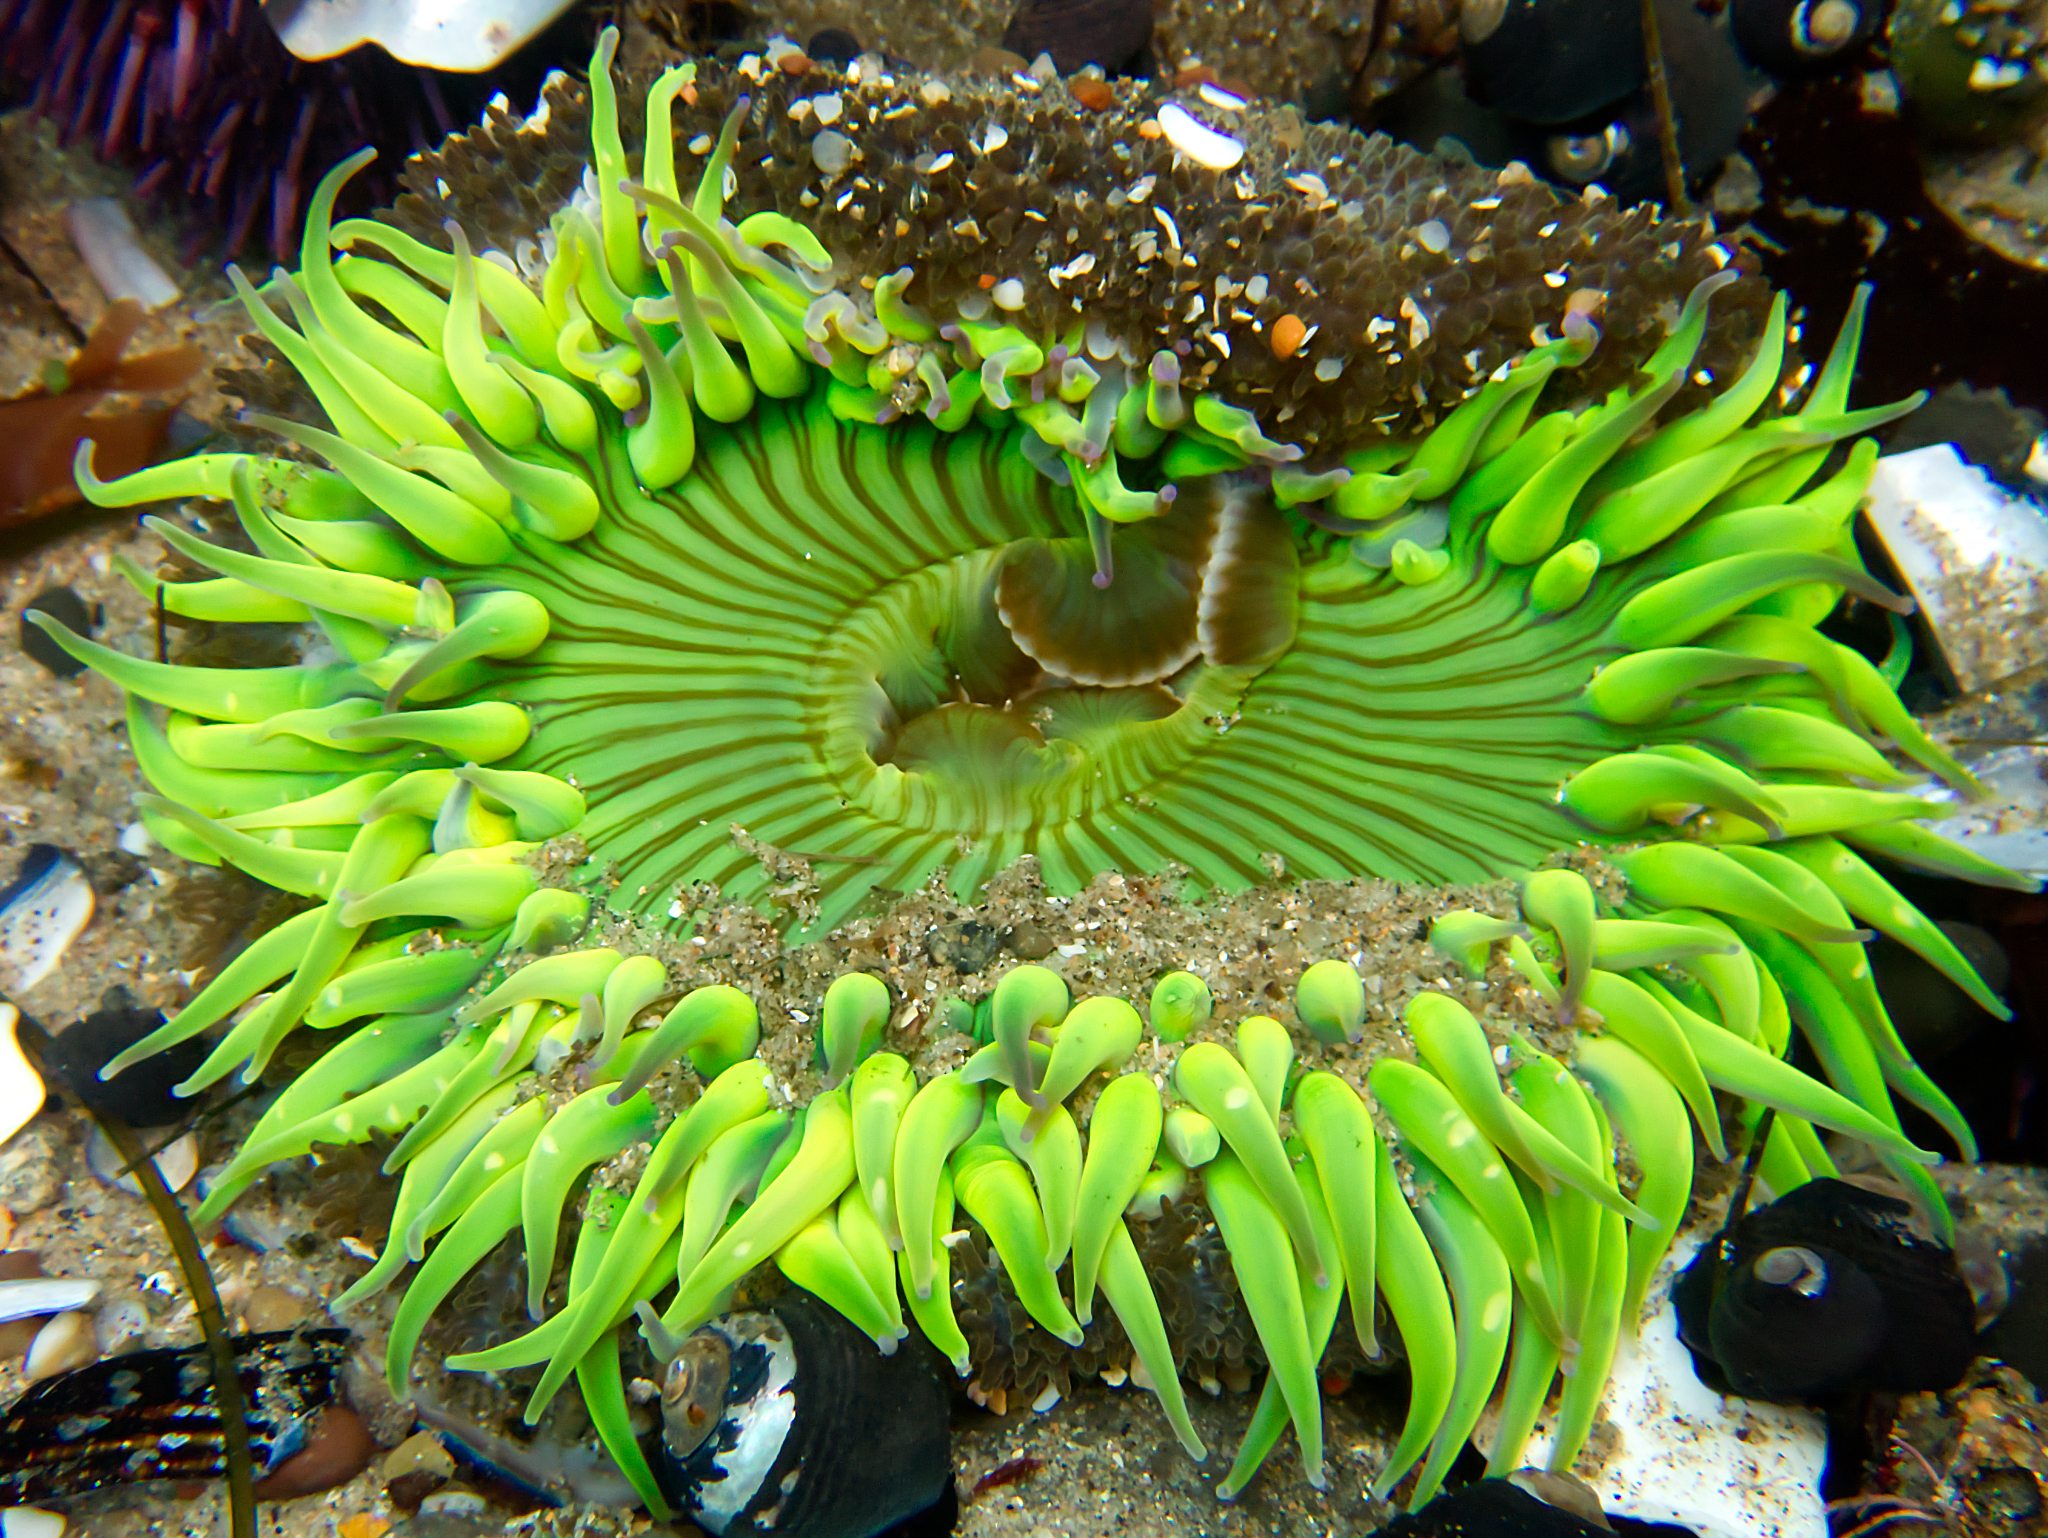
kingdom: Animalia
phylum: Cnidaria
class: Anthozoa
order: Actiniaria
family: Actiniidae
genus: Anthopleura
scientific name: Anthopleura sola
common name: Sun anemone
